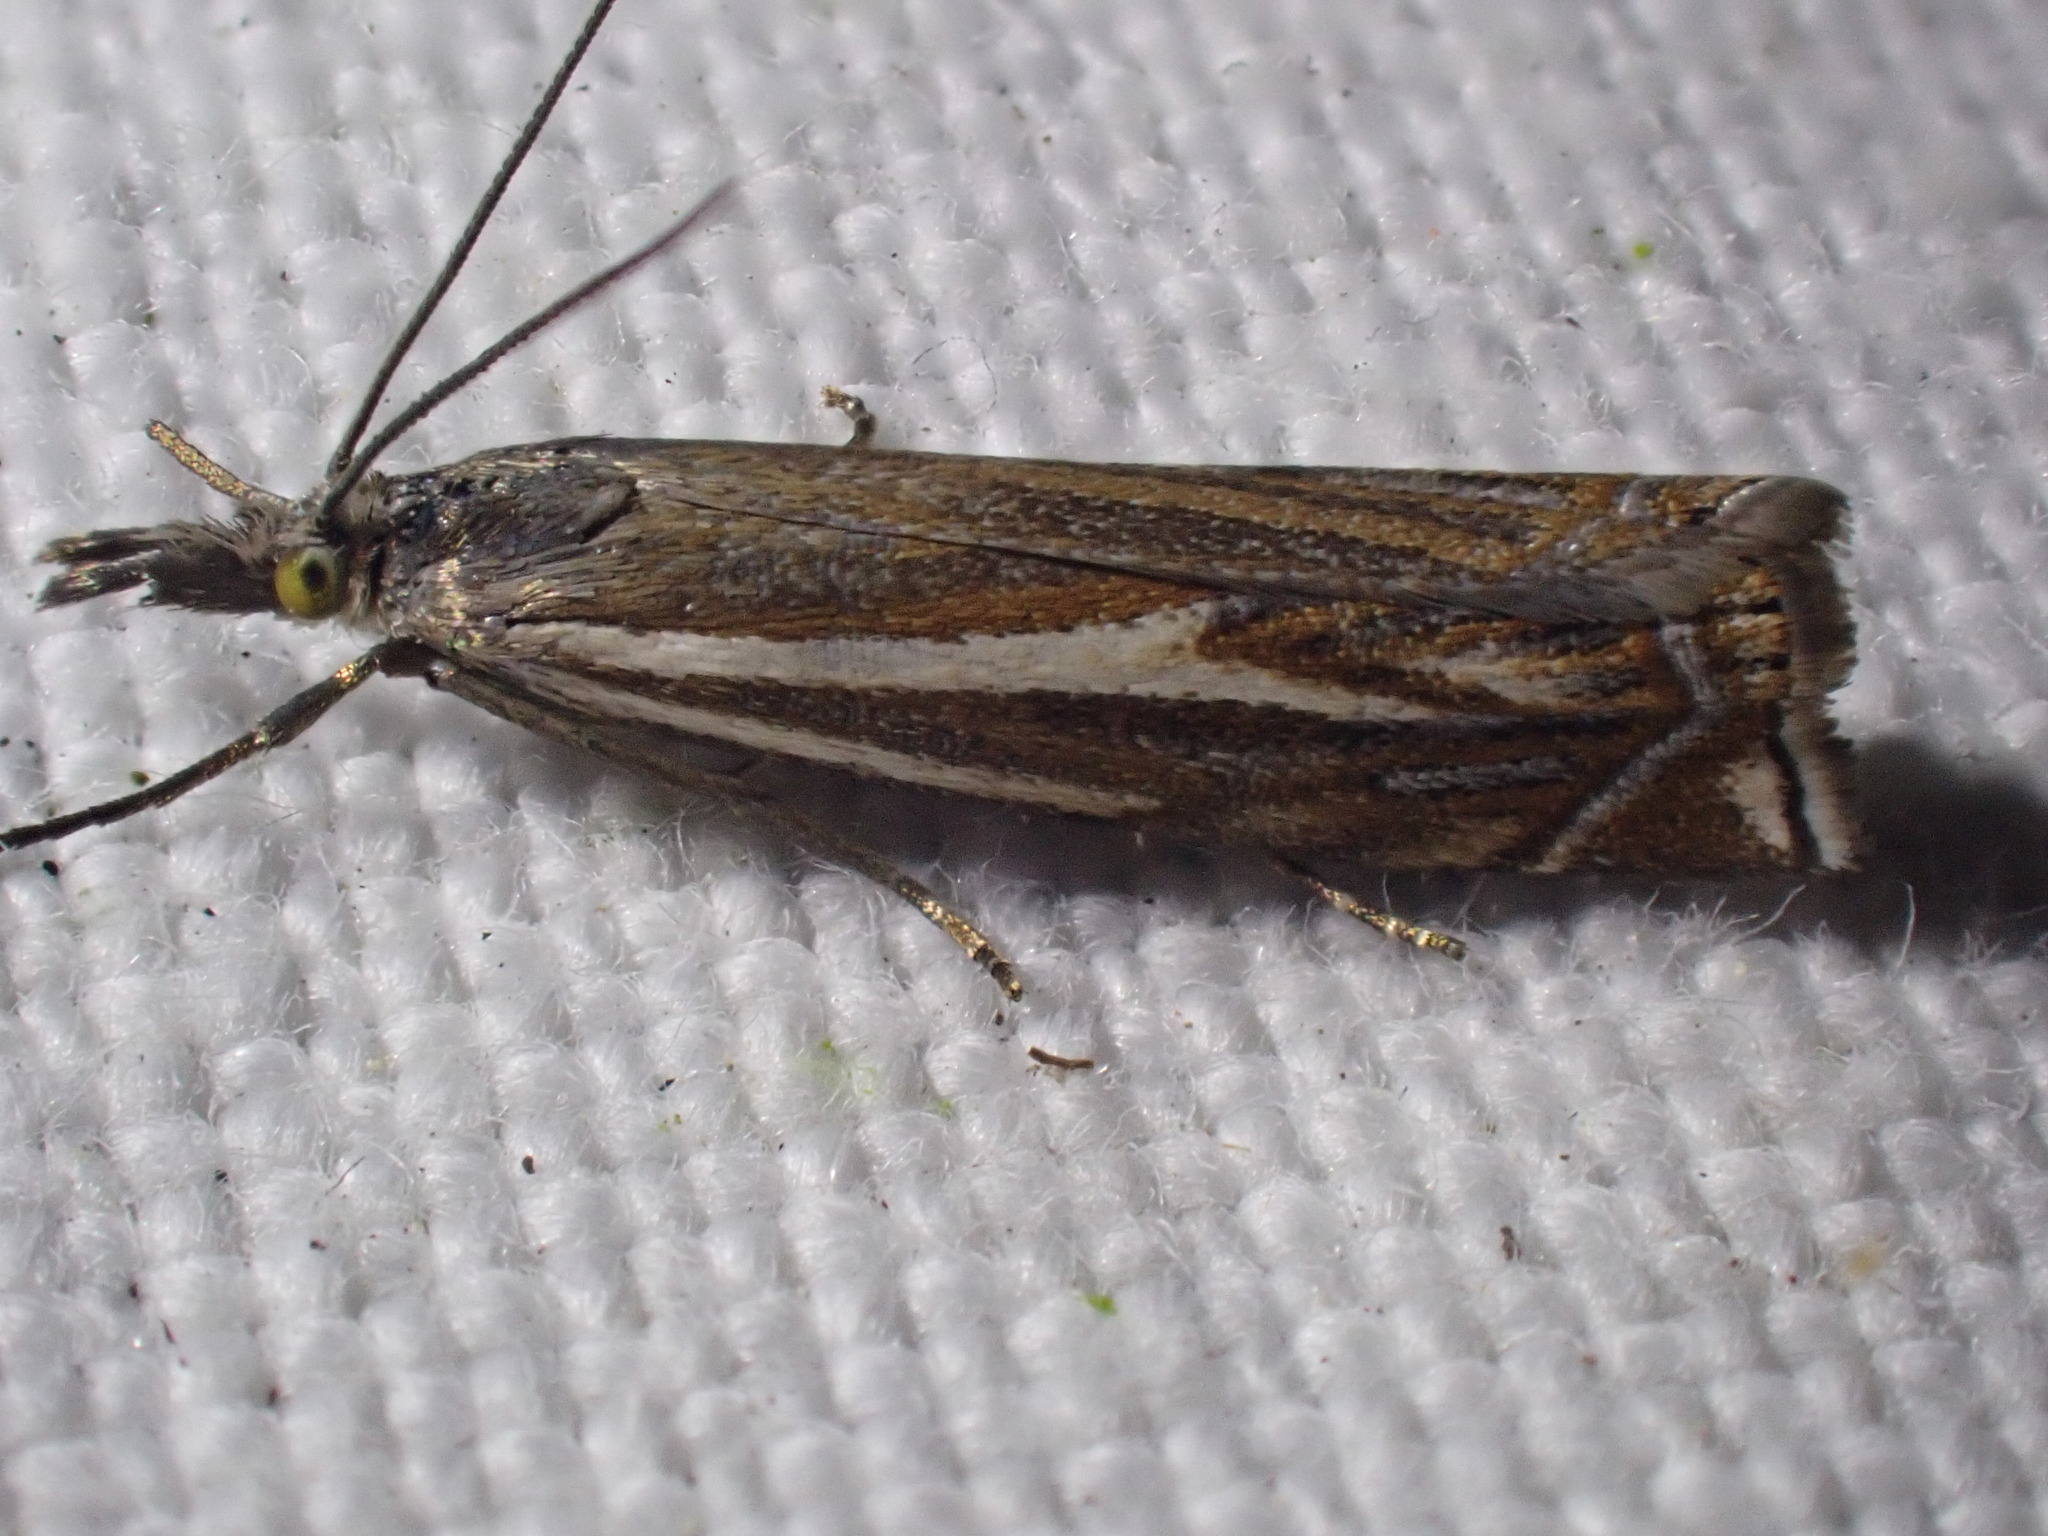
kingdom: Animalia
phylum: Arthropoda
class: Insecta
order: Lepidoptera
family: Crambidae
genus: Crambus
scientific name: Crambus nemorella
